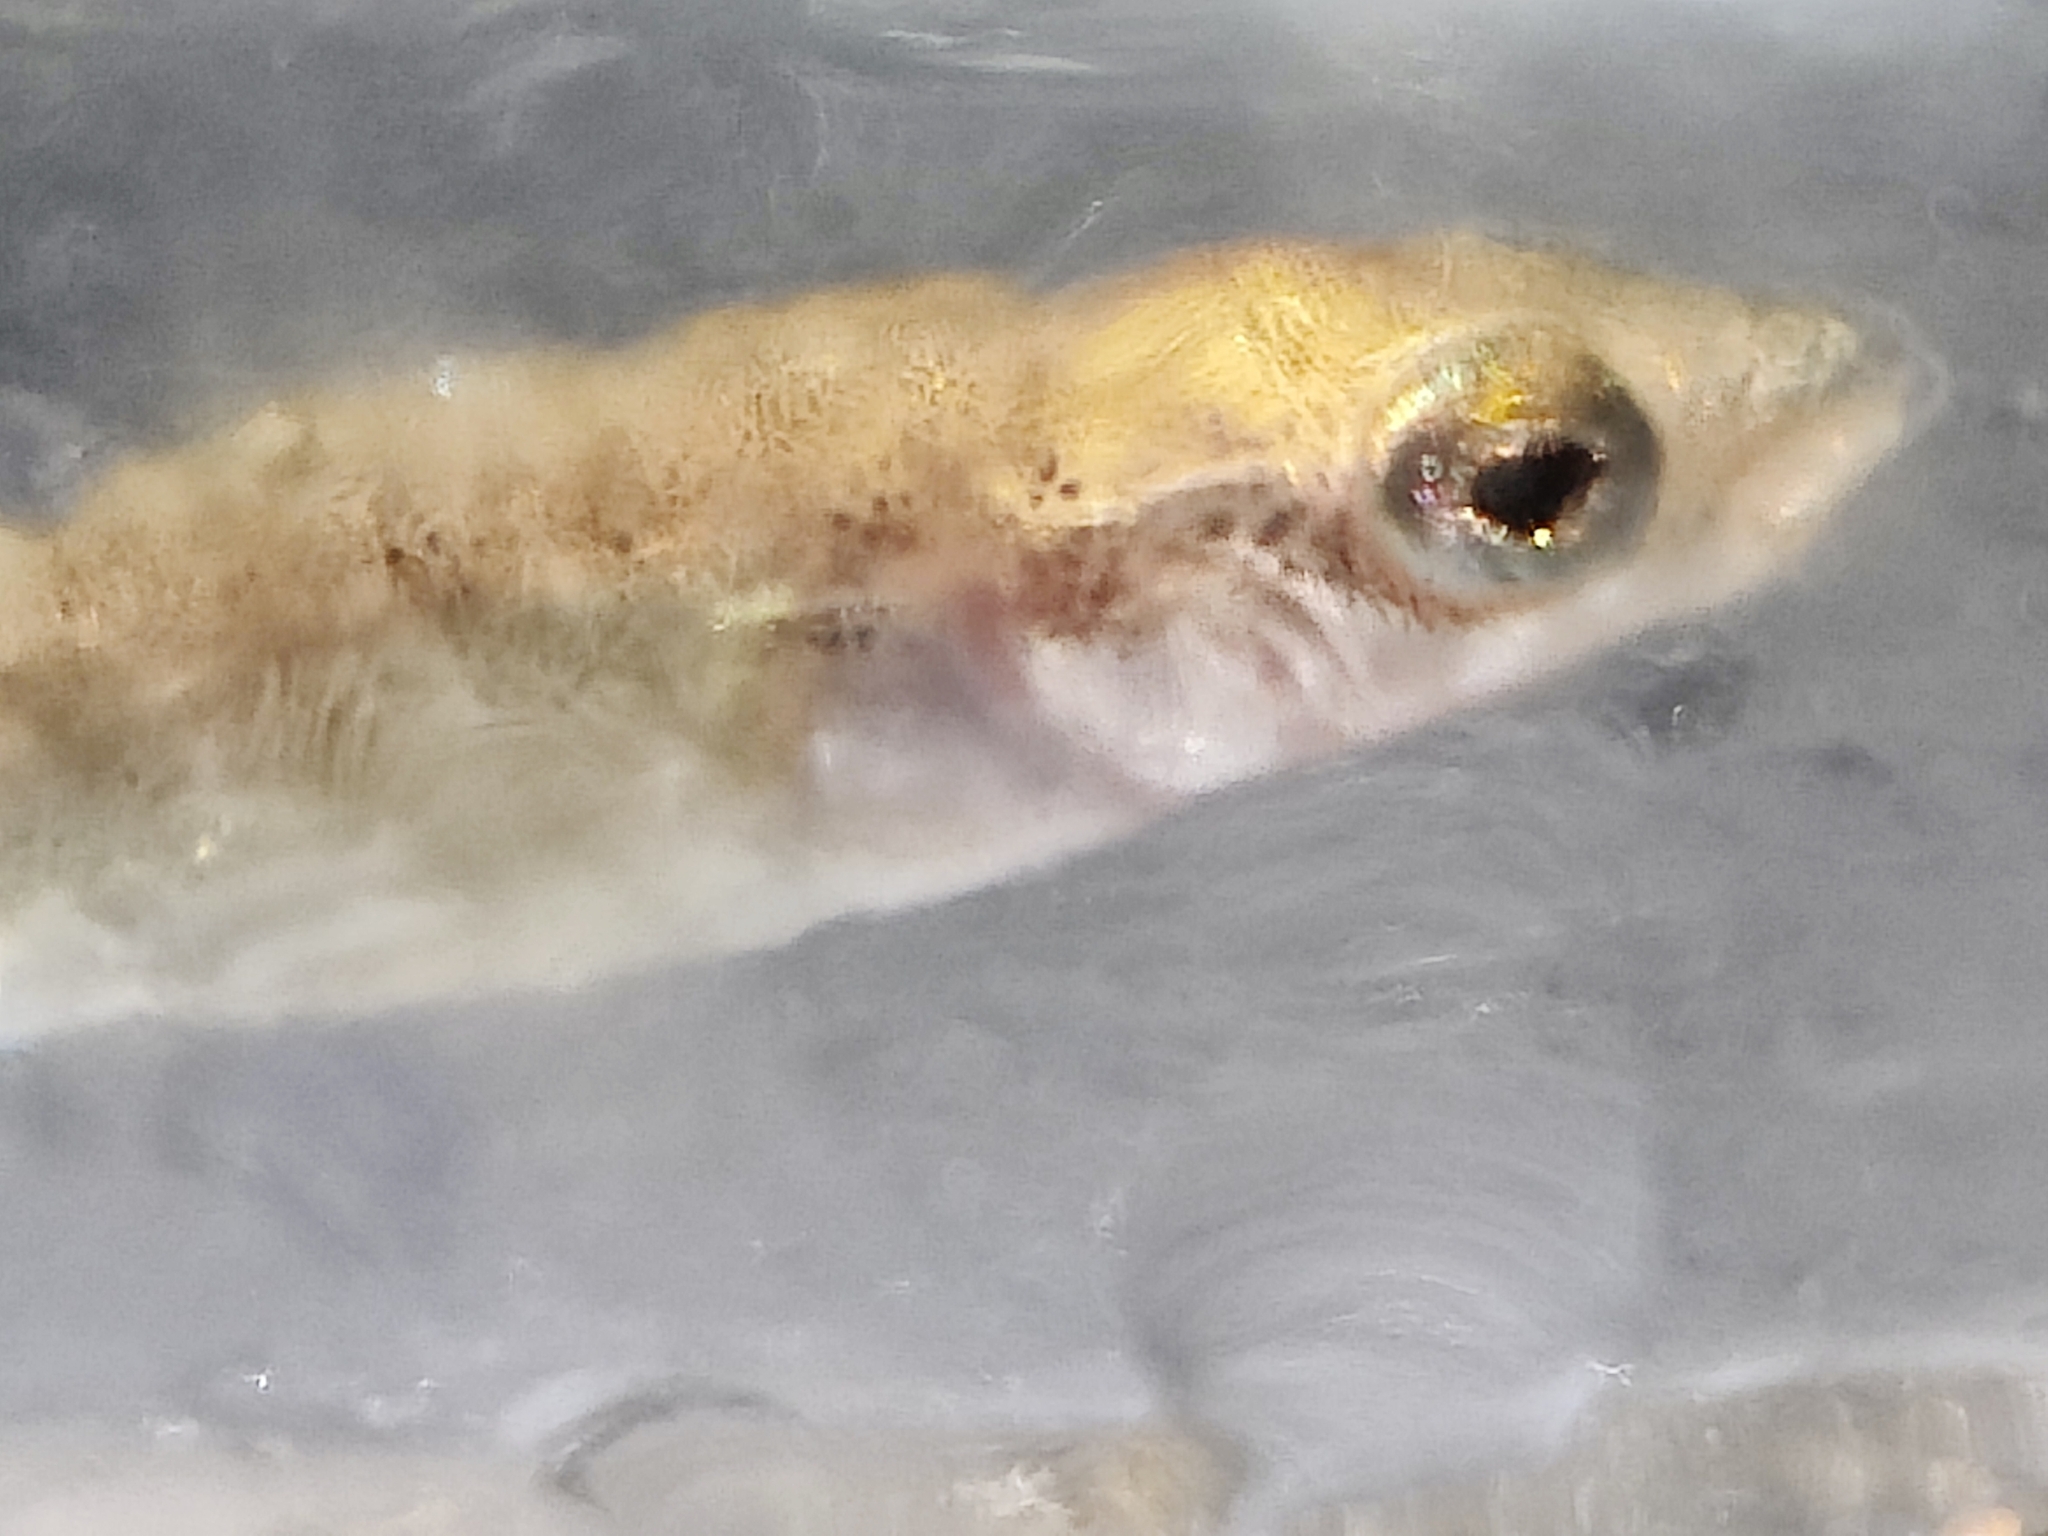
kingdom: Animalia
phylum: Chordata
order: Gasterosteiformes
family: Gasterosteidae
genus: Gasterosteus
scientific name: Gasterosteus aculeatus
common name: Three-spined stickleback
